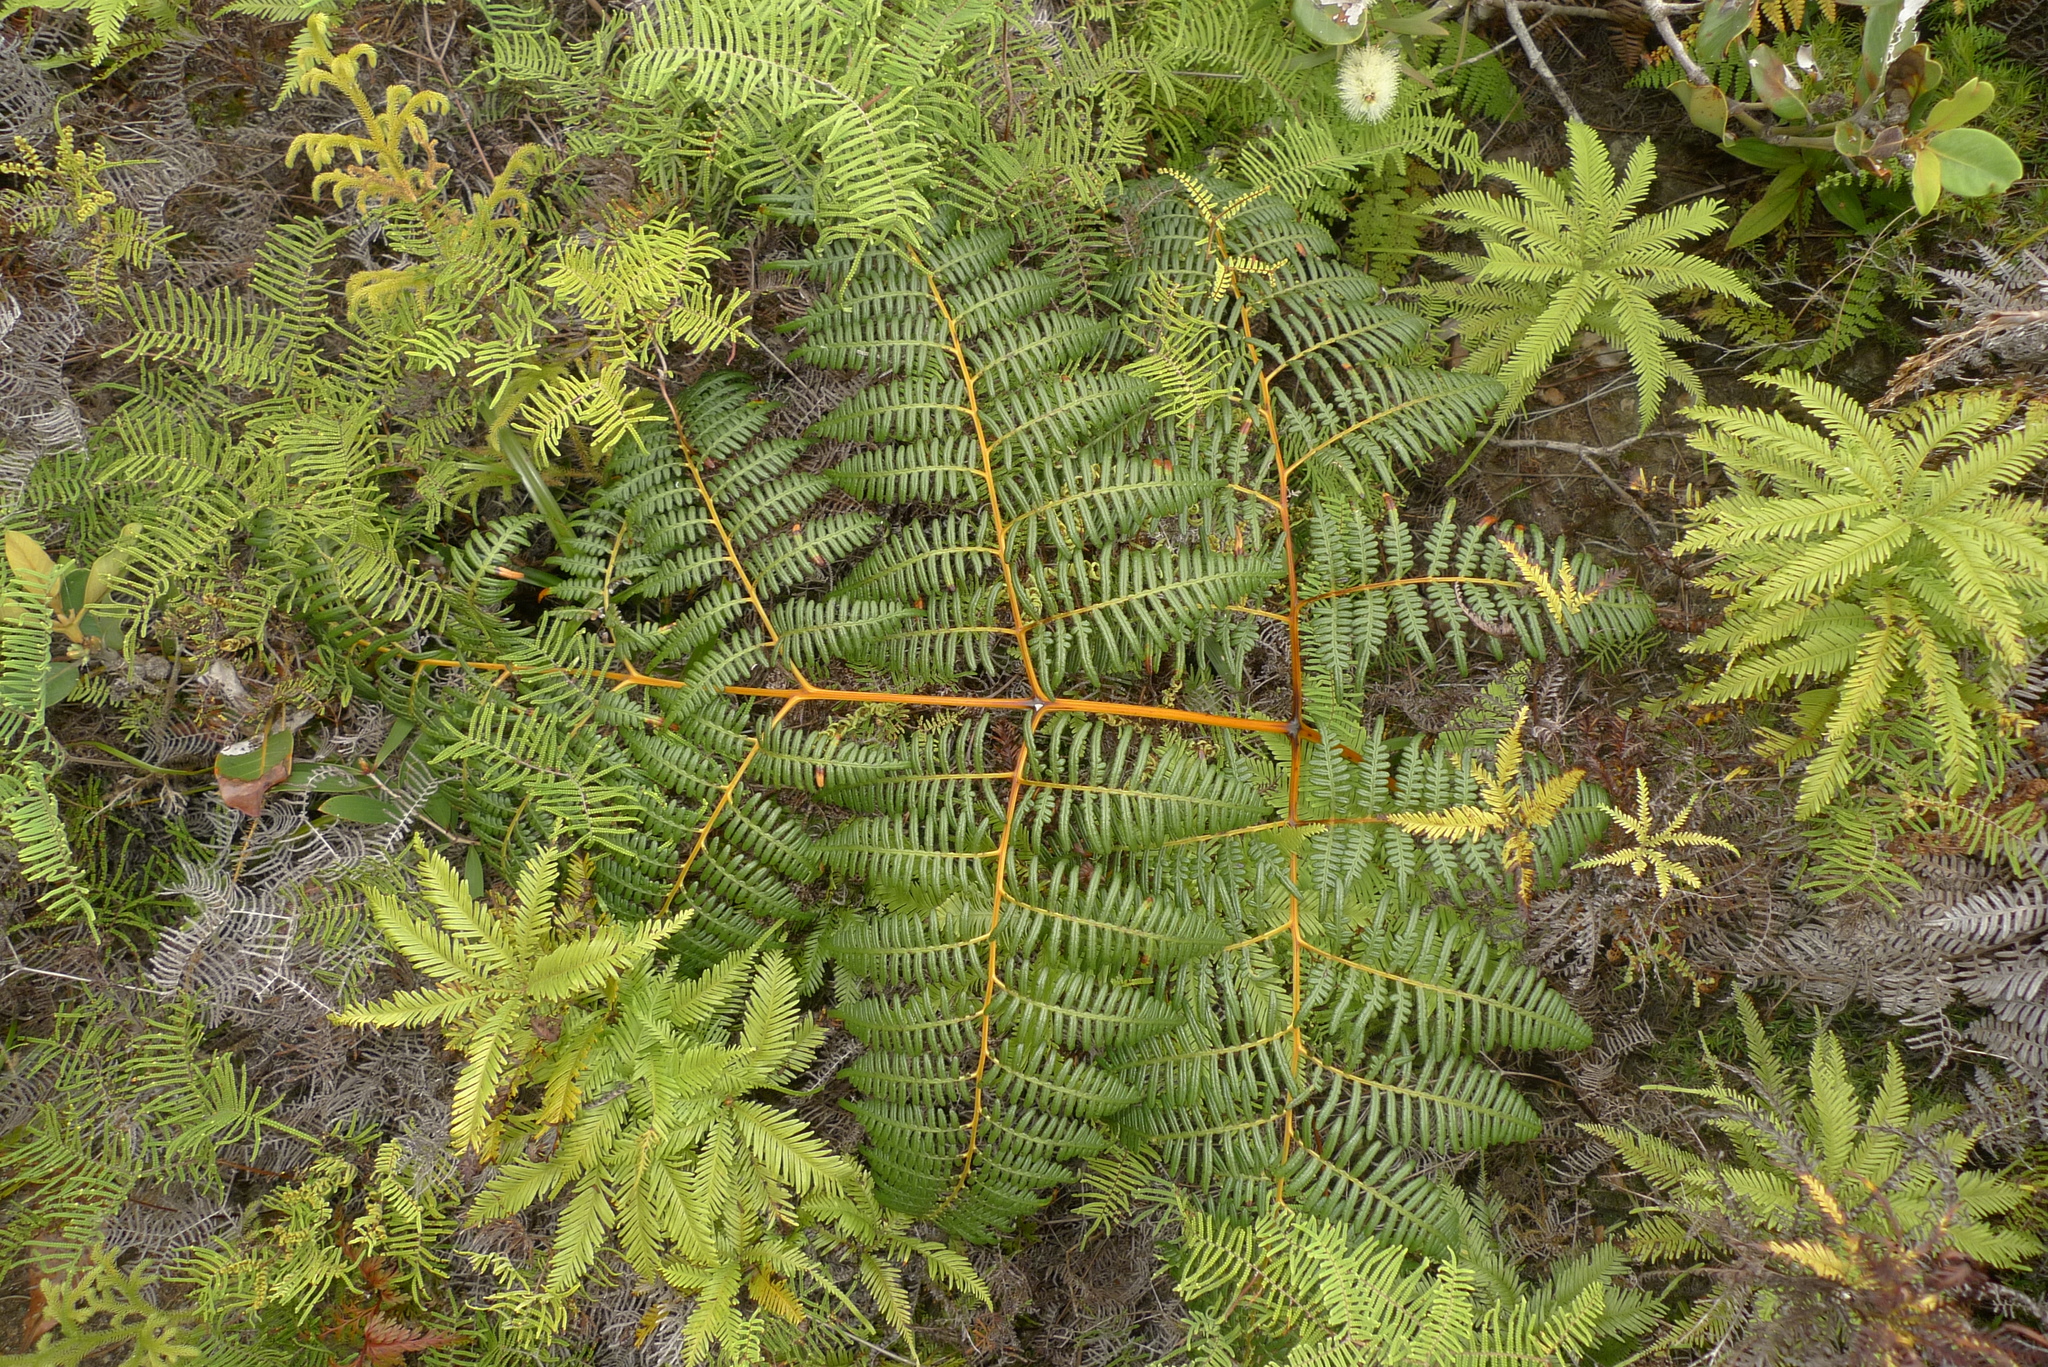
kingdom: Plantae
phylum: Tracheophyta
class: Polypodiopsida
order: Polypodiales
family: Dennstaedtiaceae
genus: Pteridium
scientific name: Pteridium esculentum
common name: Bracken fern
